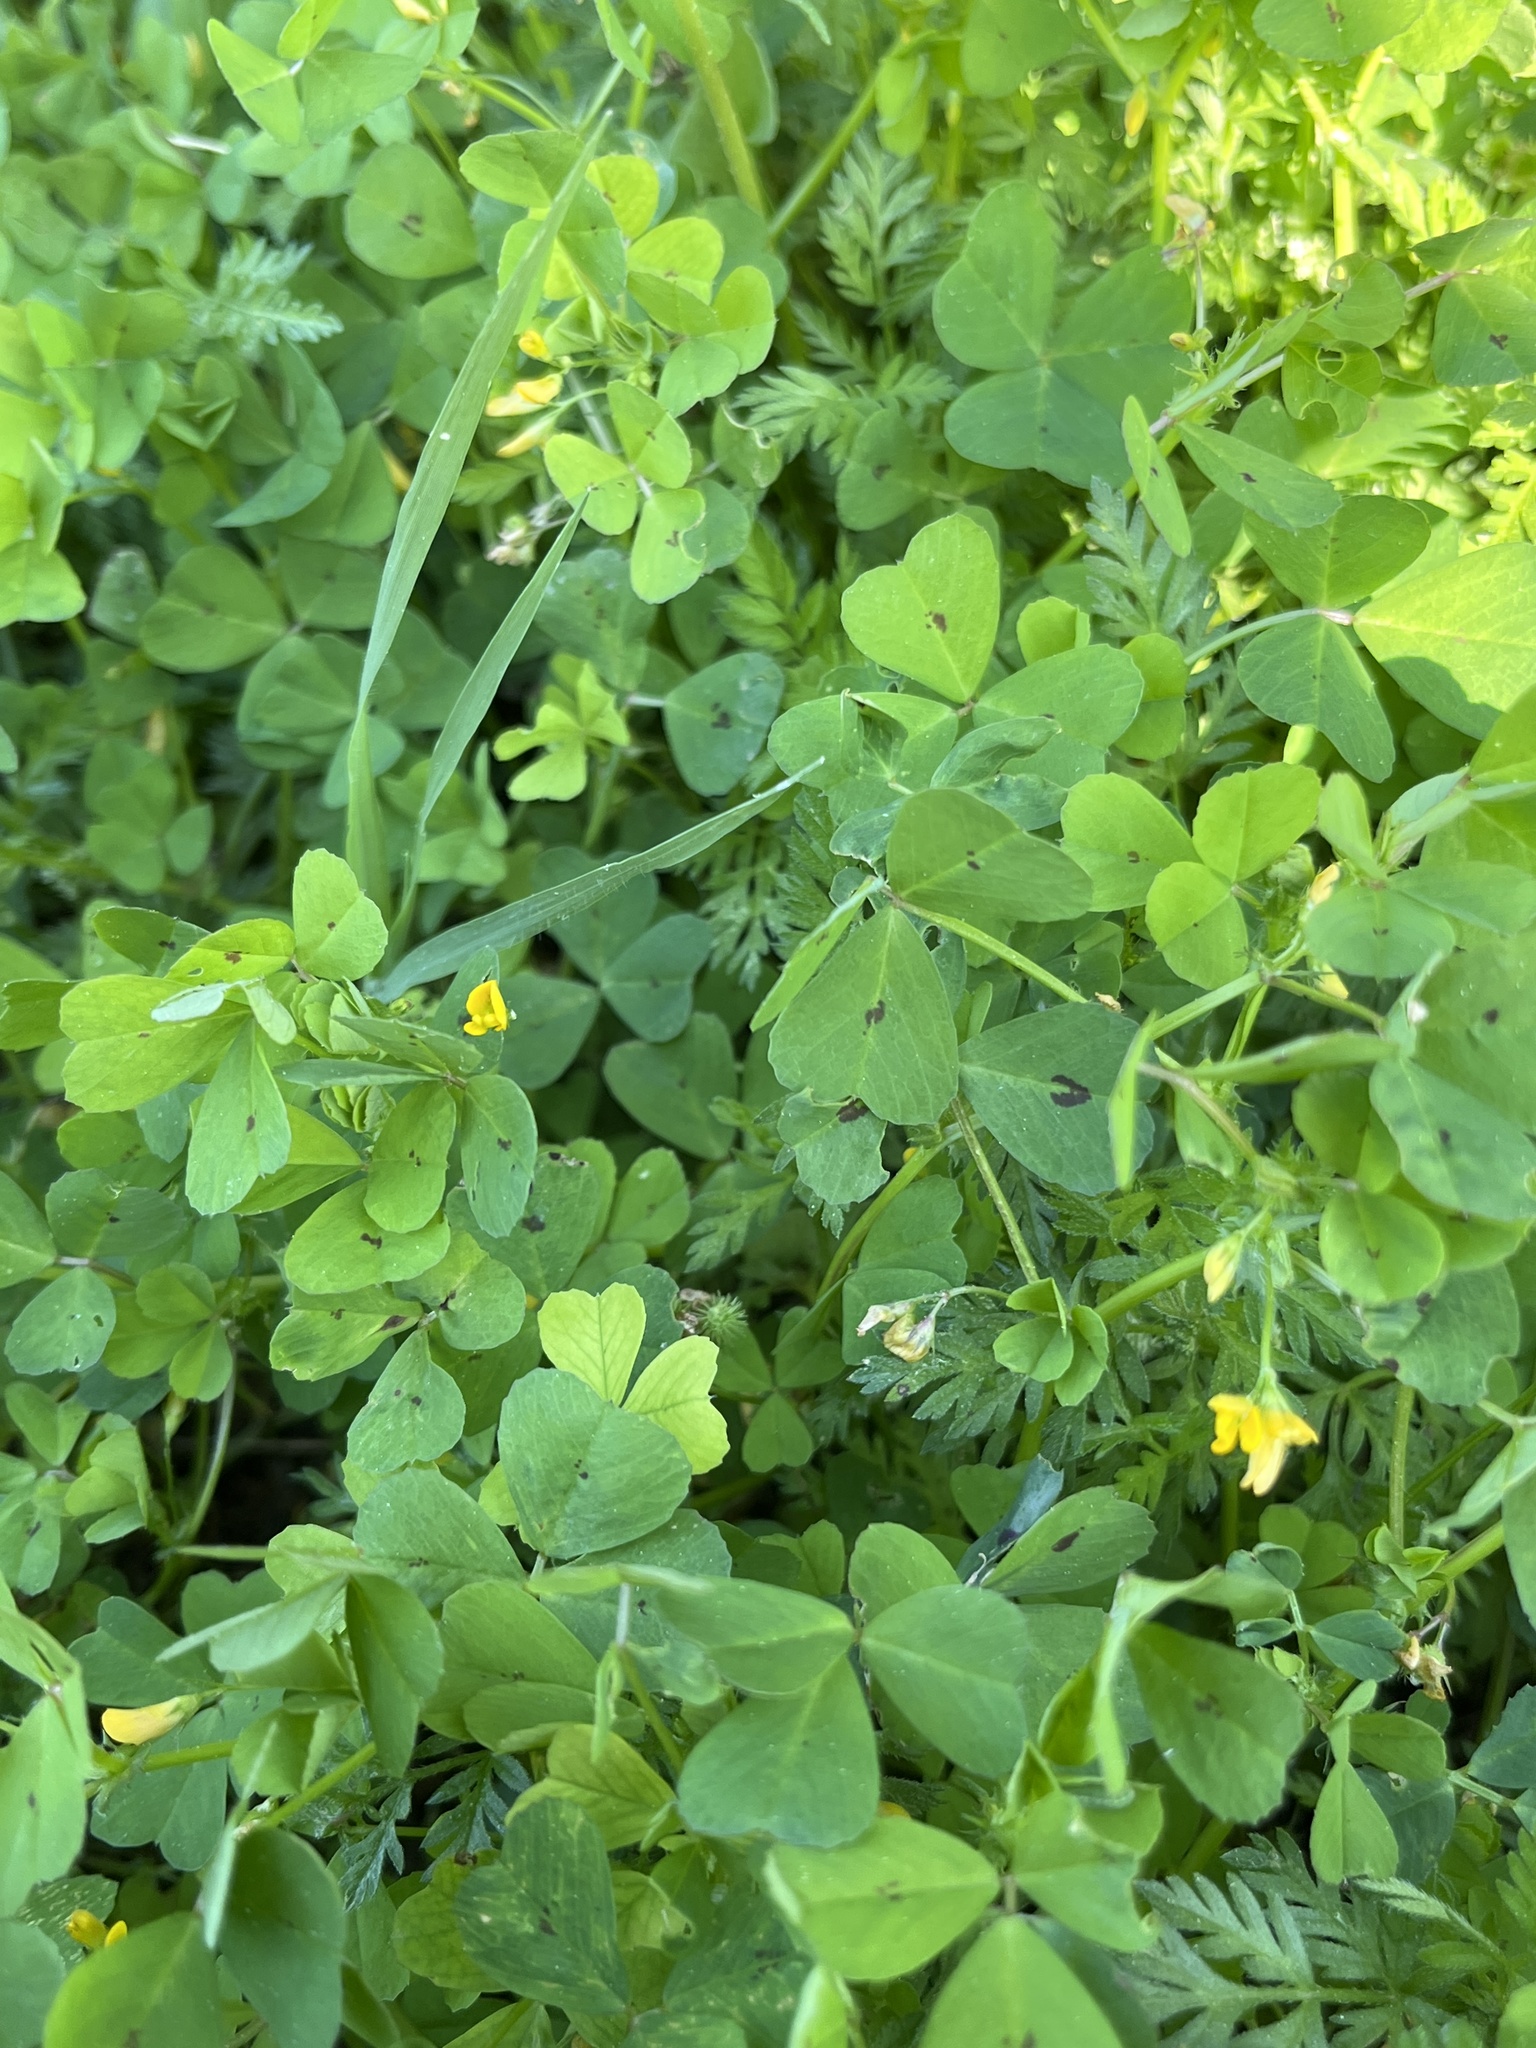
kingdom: Plantae
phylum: Tracheophyta
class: Magnoliopsida
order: Fabales
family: Fabaceae
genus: Medicago
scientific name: Medicago arabica
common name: Spotted medick
